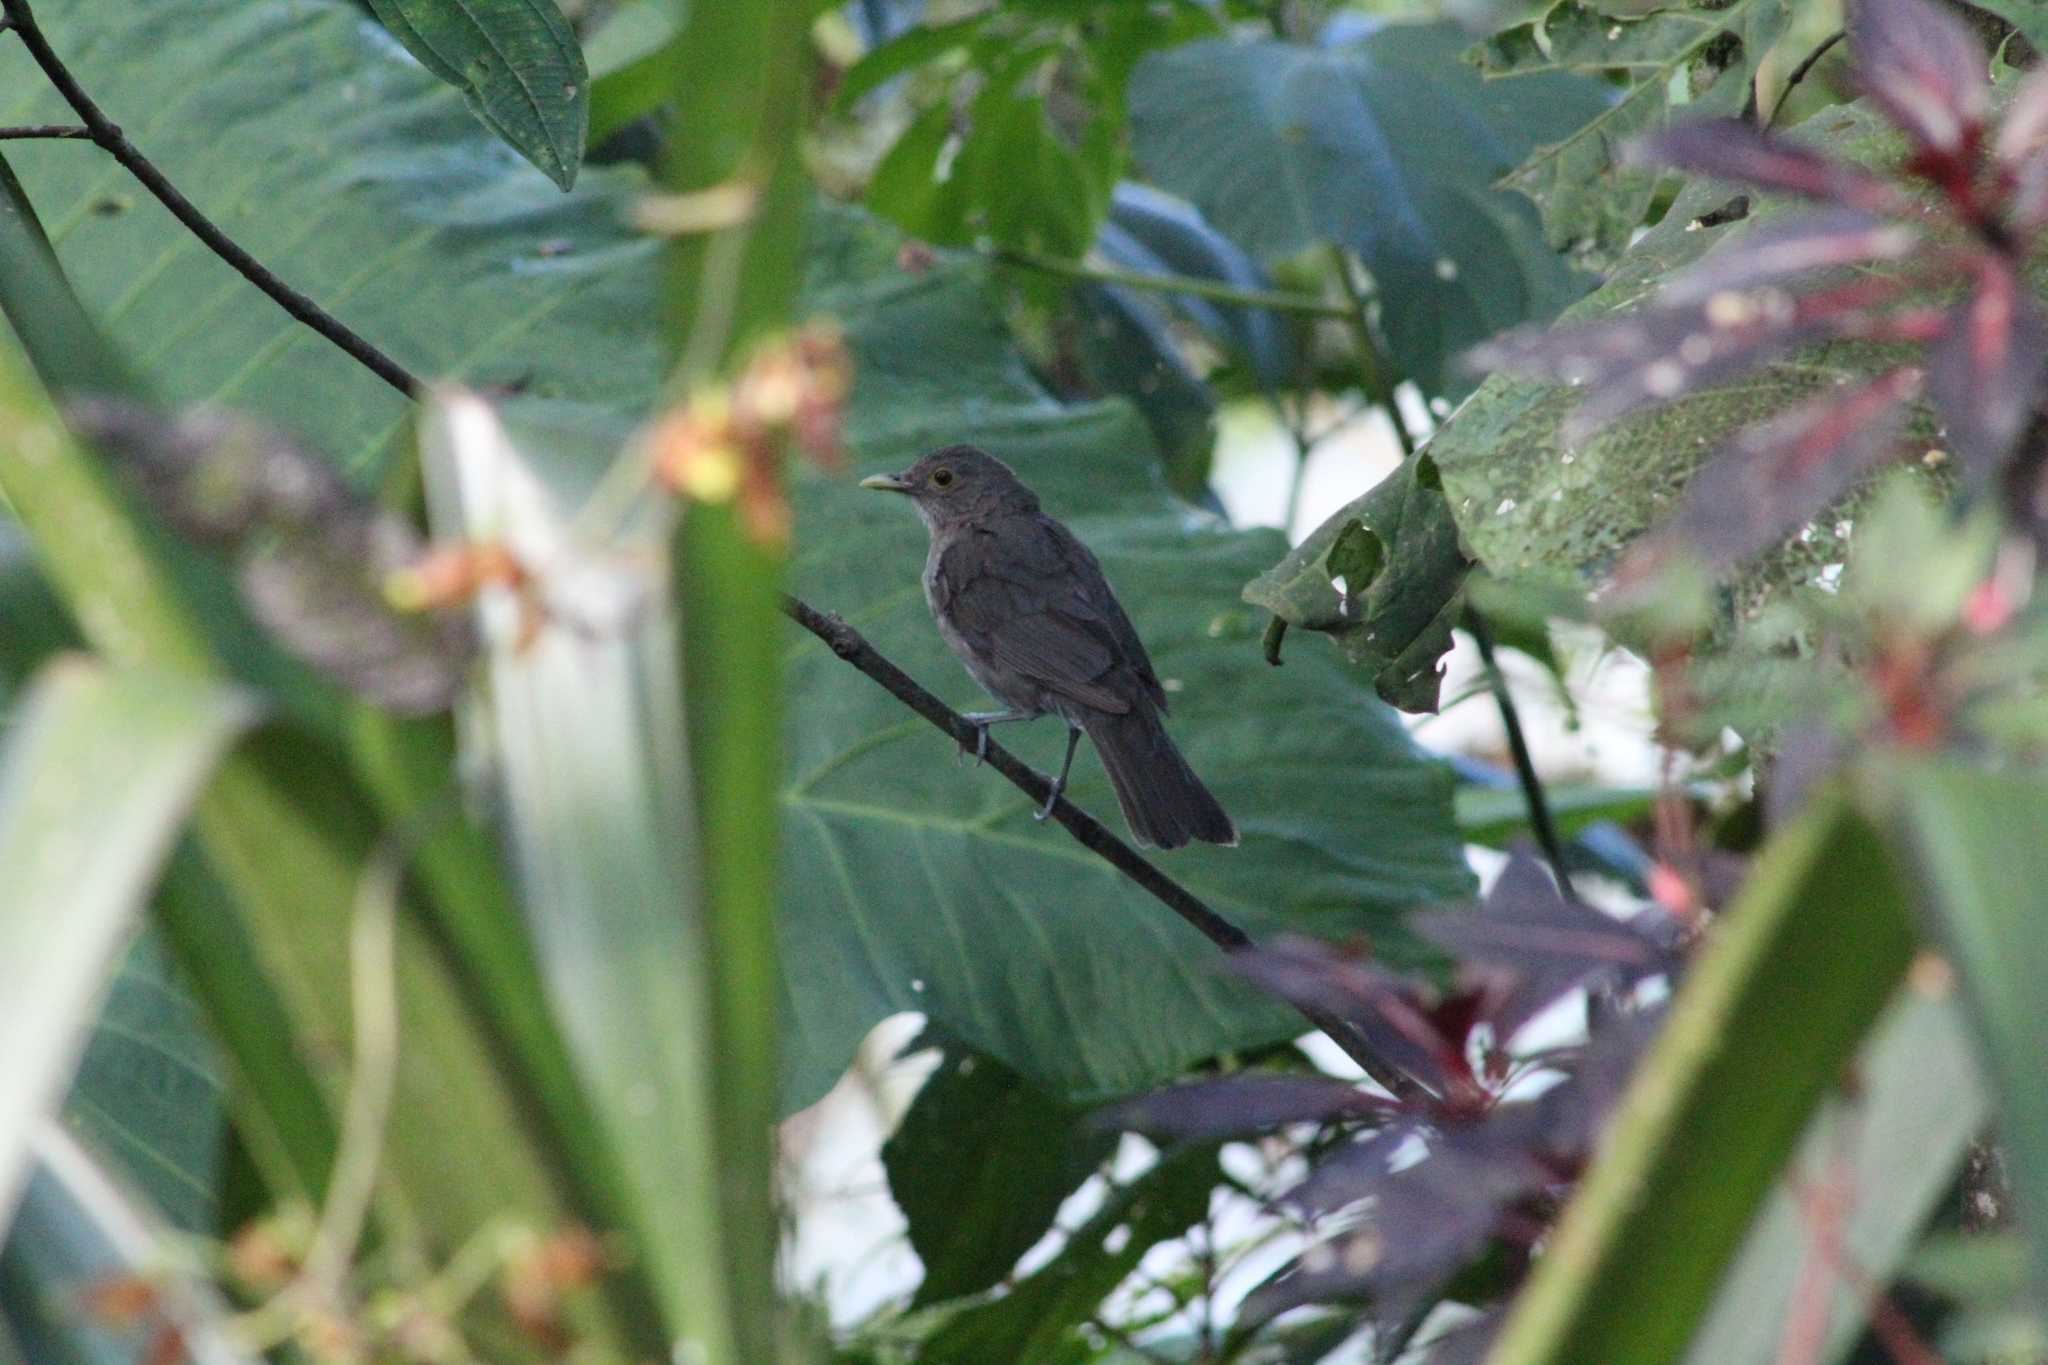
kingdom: Animalia
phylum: Chordata
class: Aves
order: Passeriformes
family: Turdidae
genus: Turdus
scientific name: Turdus maculirostris
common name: Ecuadorian thrush
